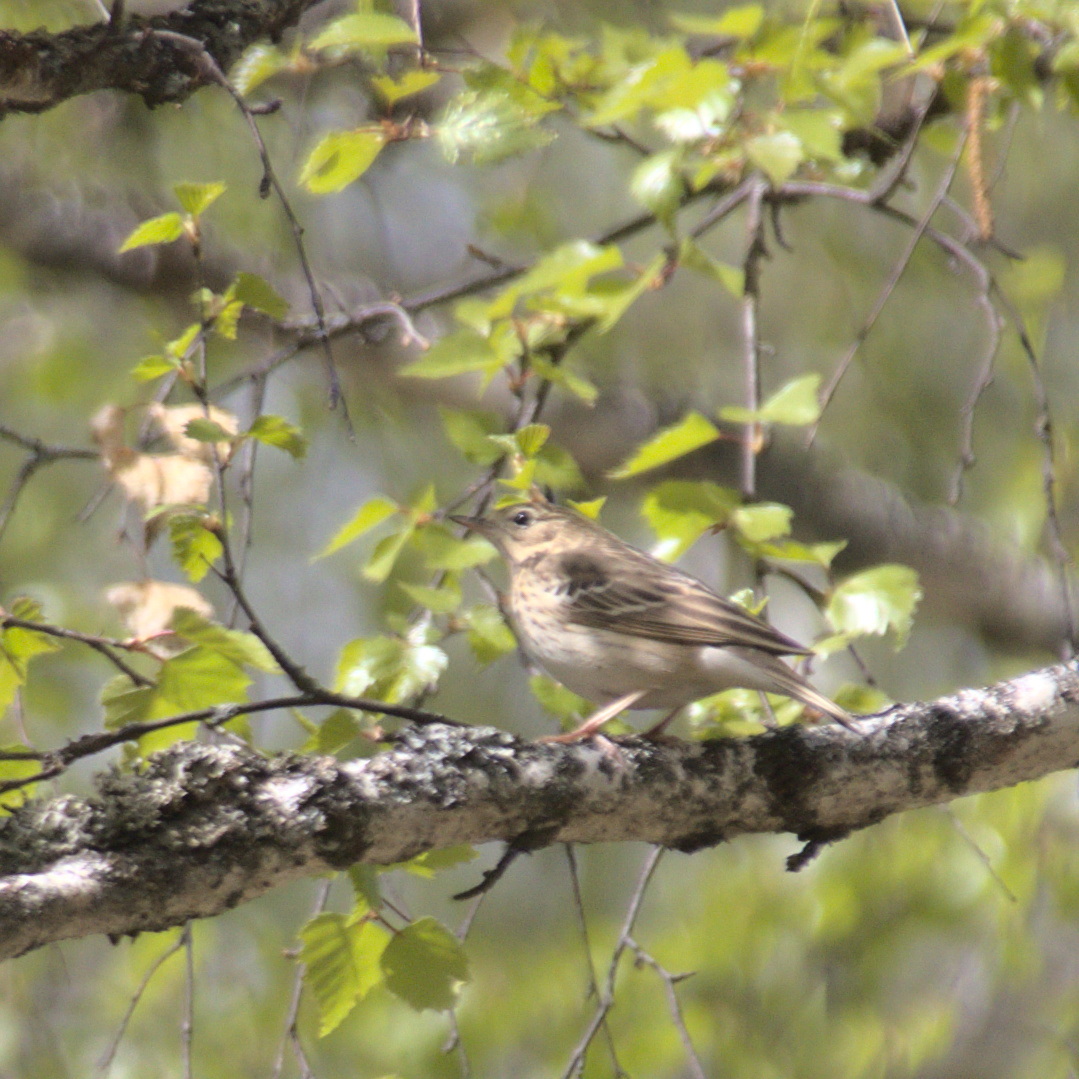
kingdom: Animalia
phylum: Chordata
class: Aves
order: Passeriformes
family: Motacillidae
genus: Anthus
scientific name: Anthus trivialis
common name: Tree pipit
